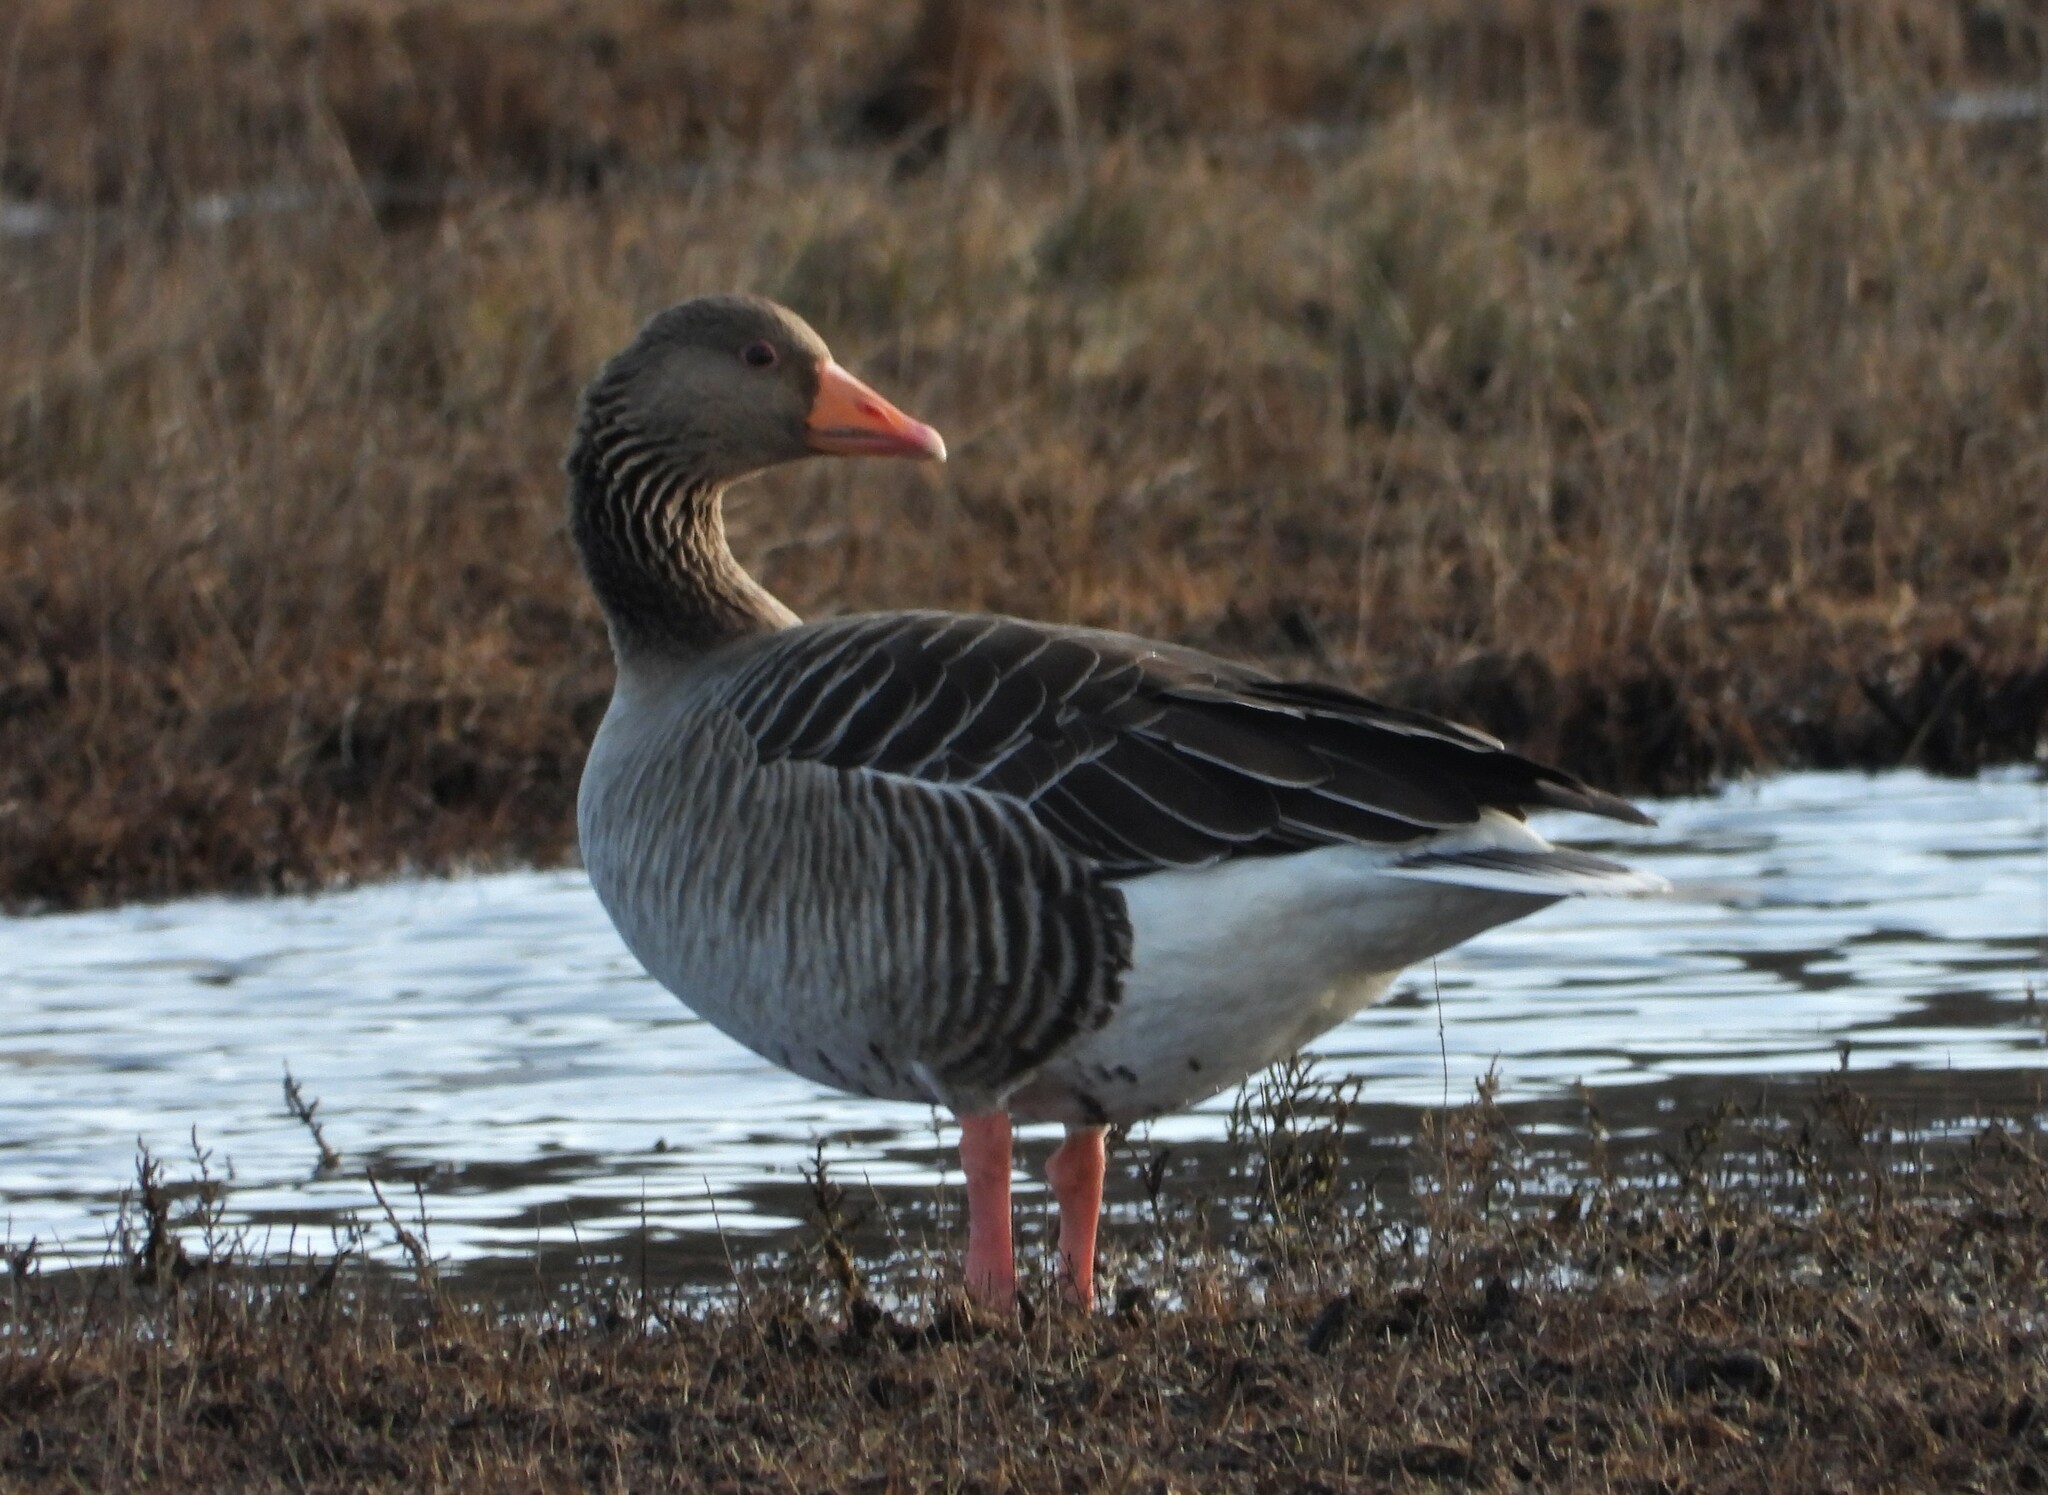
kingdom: Animalia
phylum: Chordata
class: Aves
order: Anseriformes
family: Anatidae
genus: Anser
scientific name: Anser anser
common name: Greylag goose
